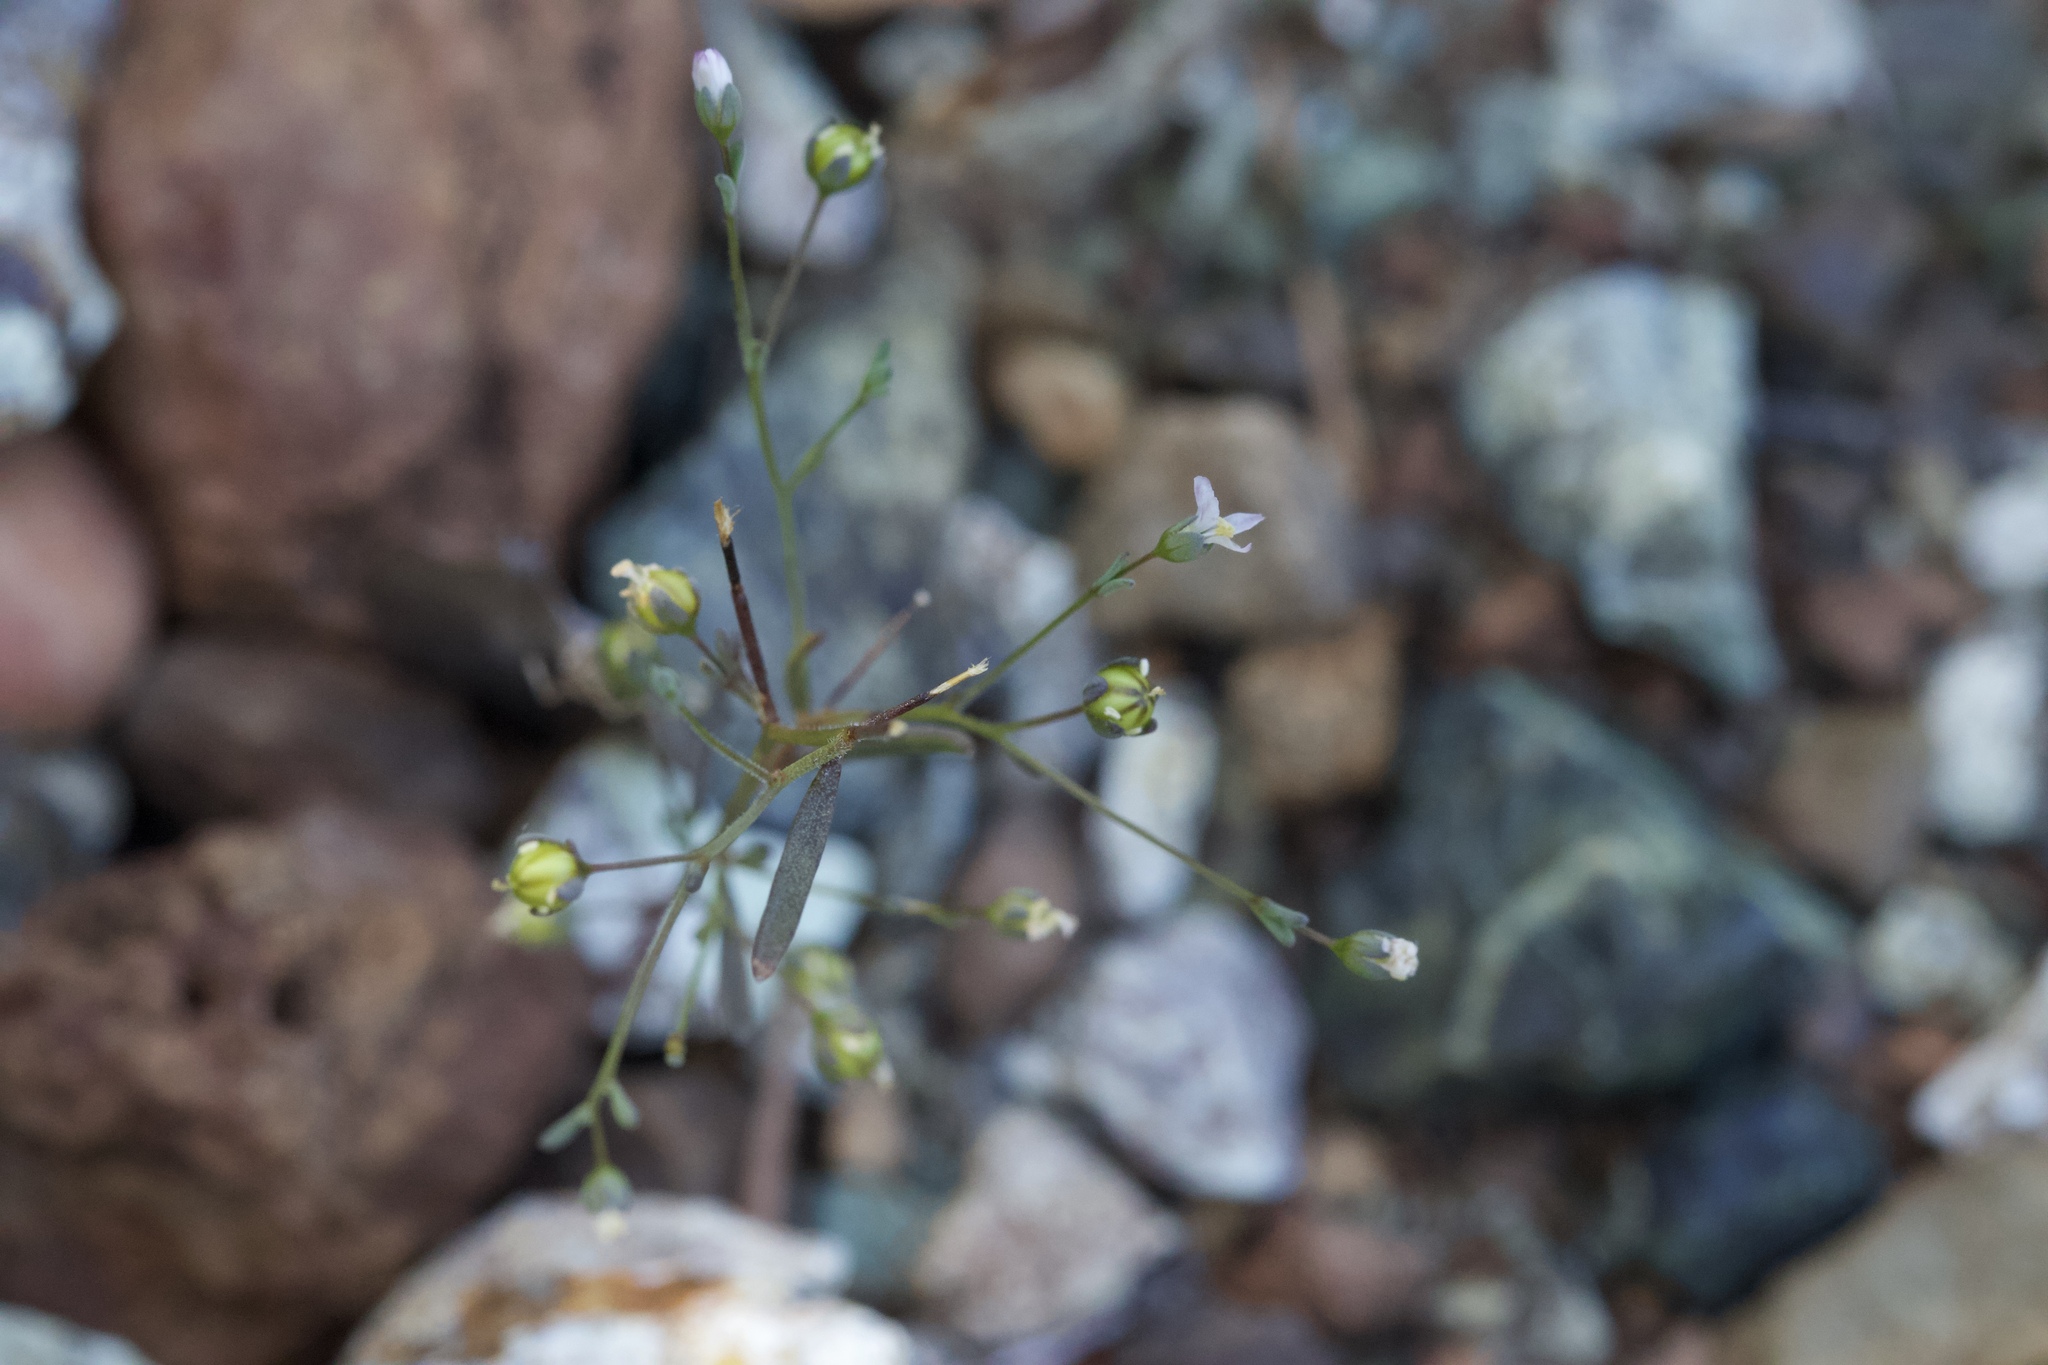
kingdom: Plantae
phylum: Tracheophyta
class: Magnoliopsida
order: Malpighiales
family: Linaceae
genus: Hesperolinon
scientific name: Hesperolinon micranthum
